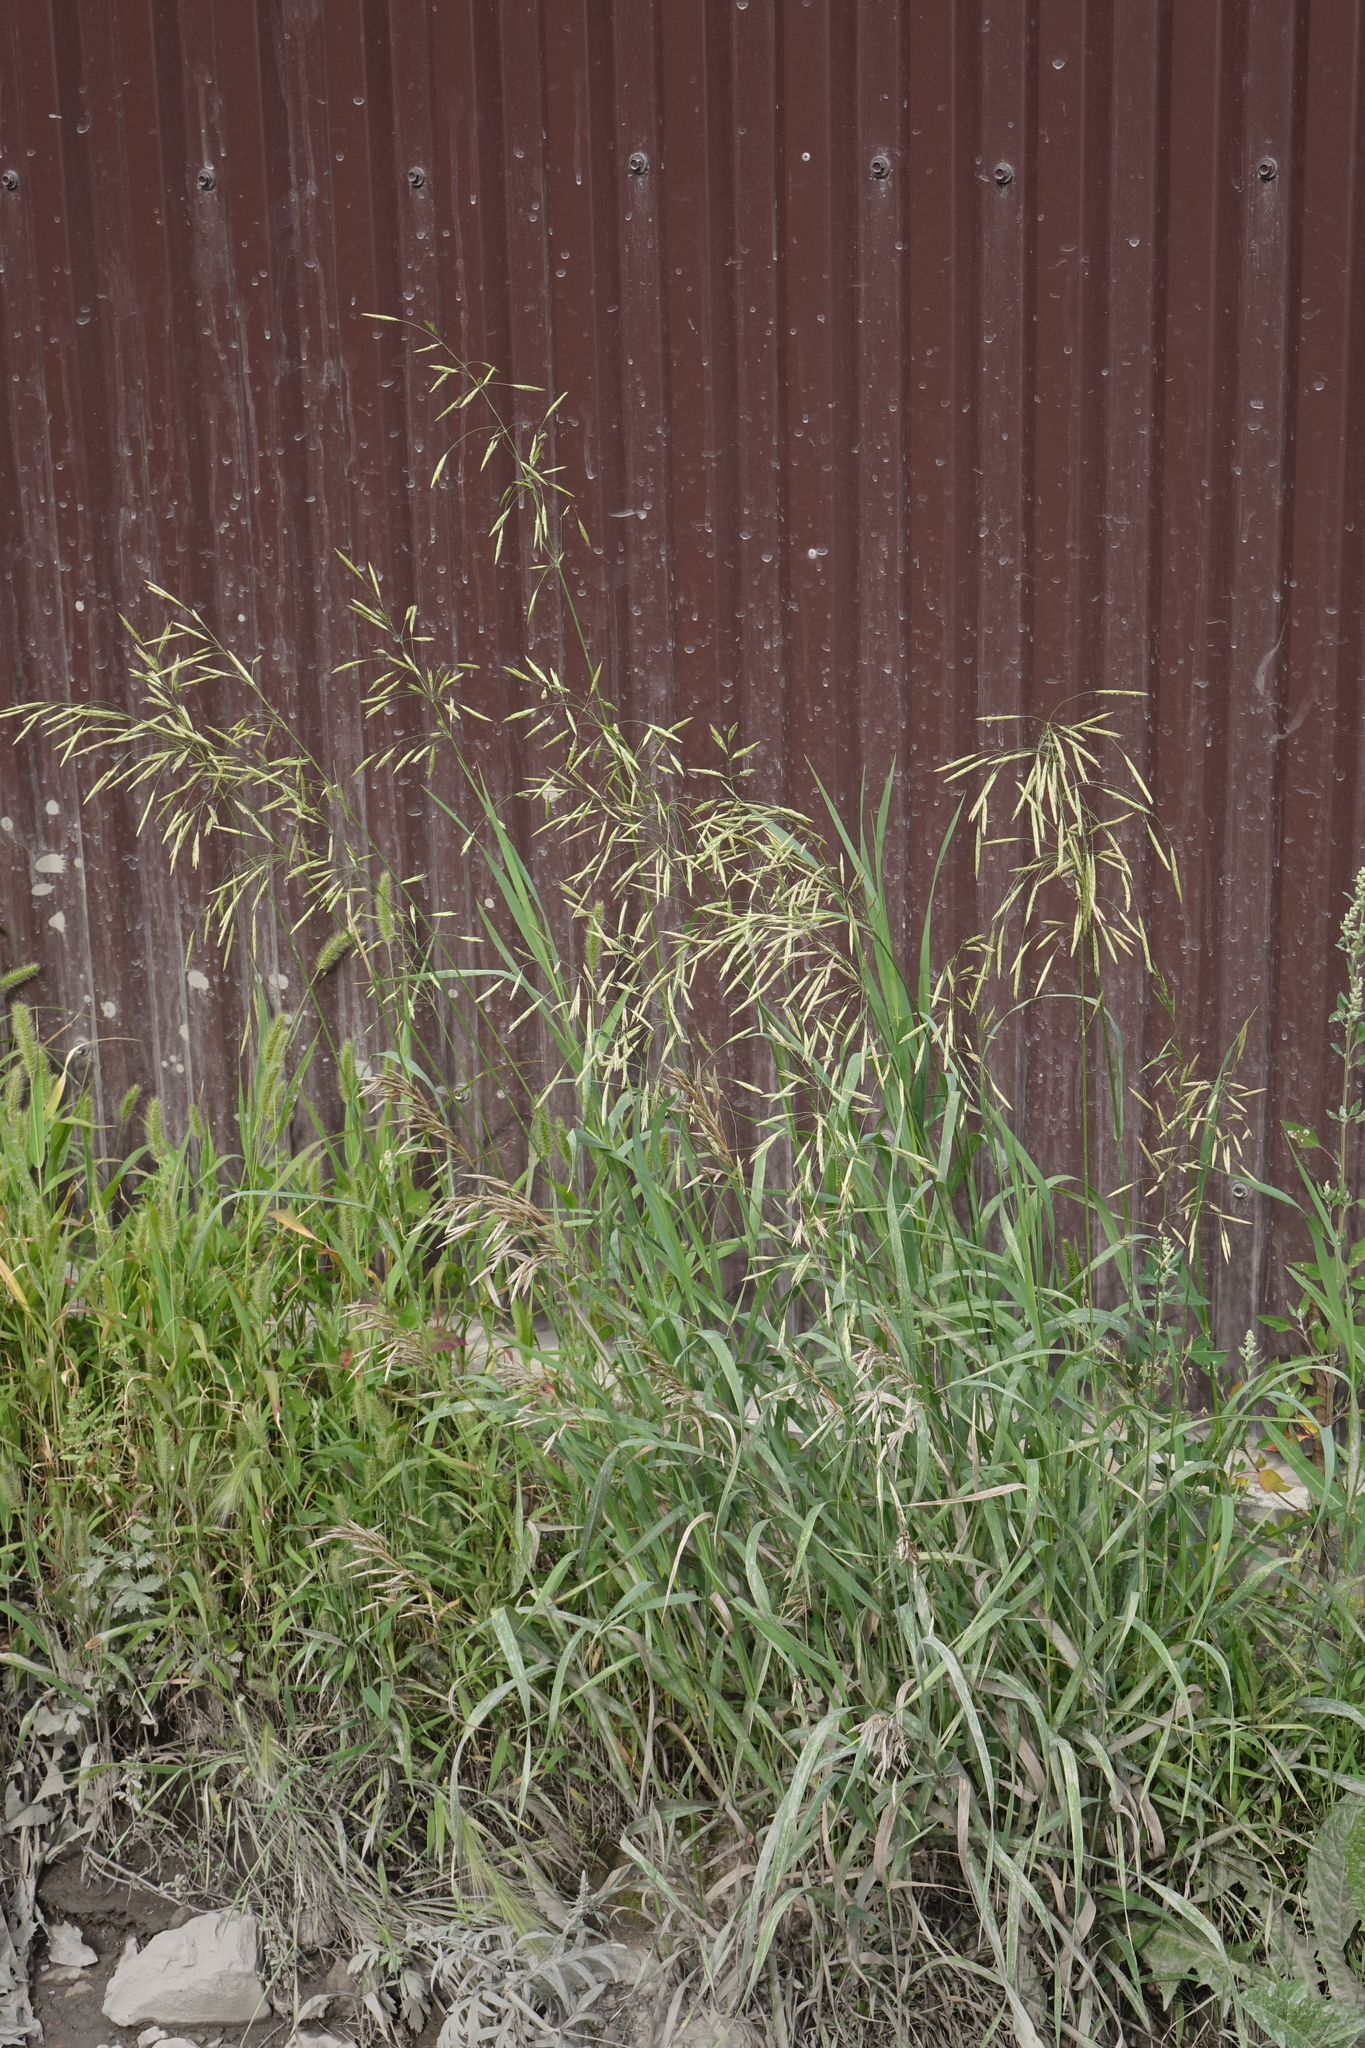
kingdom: Plantae
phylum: Tracheophyta
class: Liliopsida
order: Poales
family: Poaceae
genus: Bromus
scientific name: Bromus inermis
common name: Smooth brome
